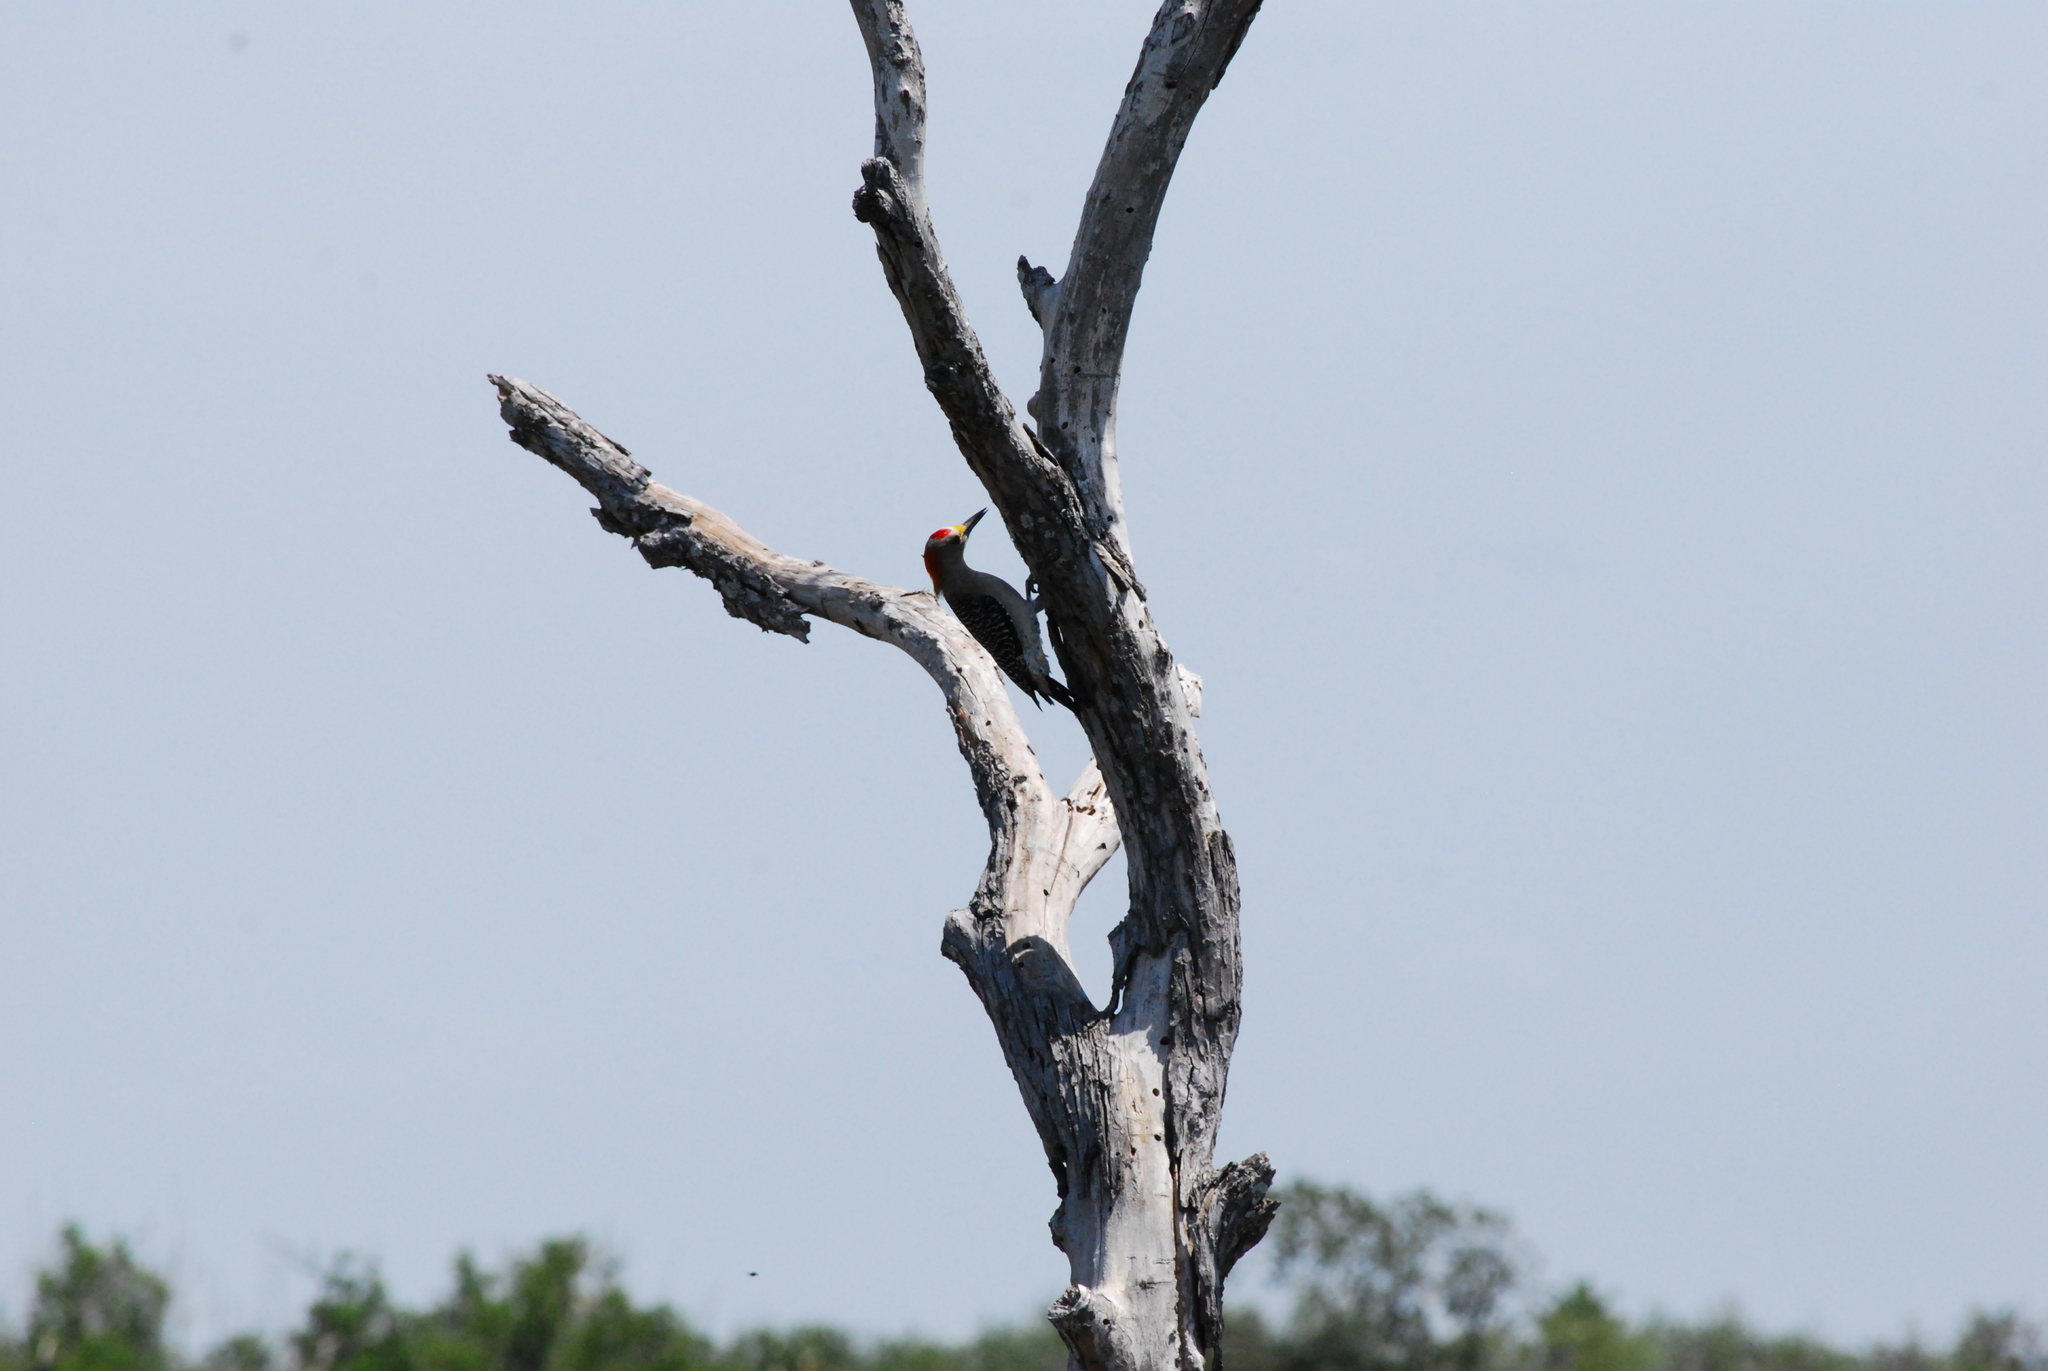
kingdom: Animalia
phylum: Chordata
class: Aves
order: Piciformes
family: Picidae
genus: Melanerpes
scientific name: Melanerpes aurifrons
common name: Golden-fronted woodpecker
